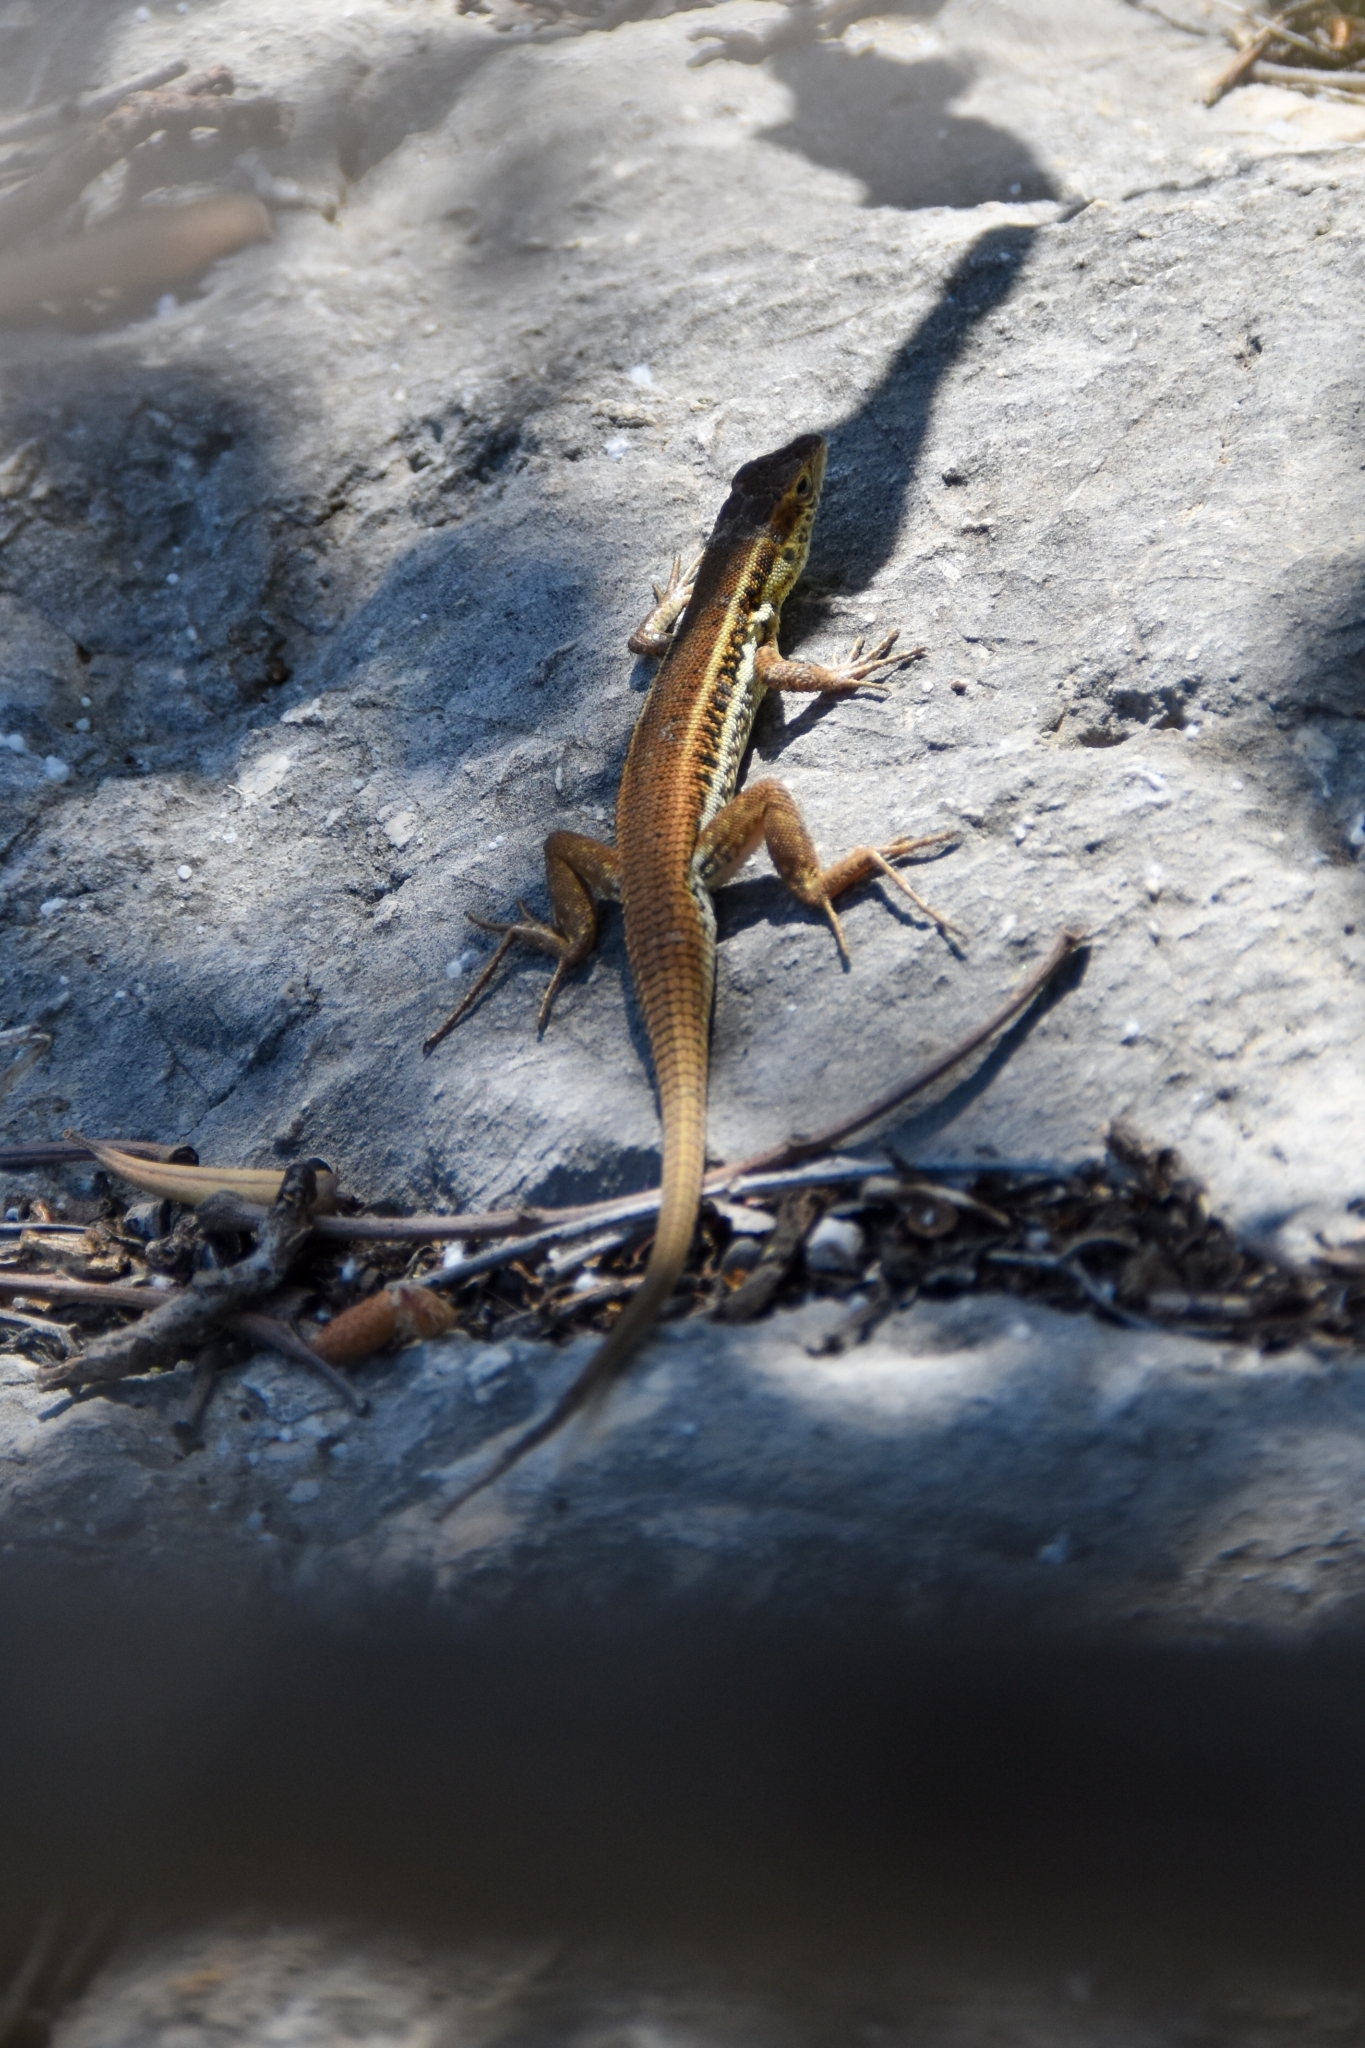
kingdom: Animalia
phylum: Chordata
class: Squamata
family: Lacertidae
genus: Ophisops
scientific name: Ophisops elegans
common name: Snake-eyed lizard
